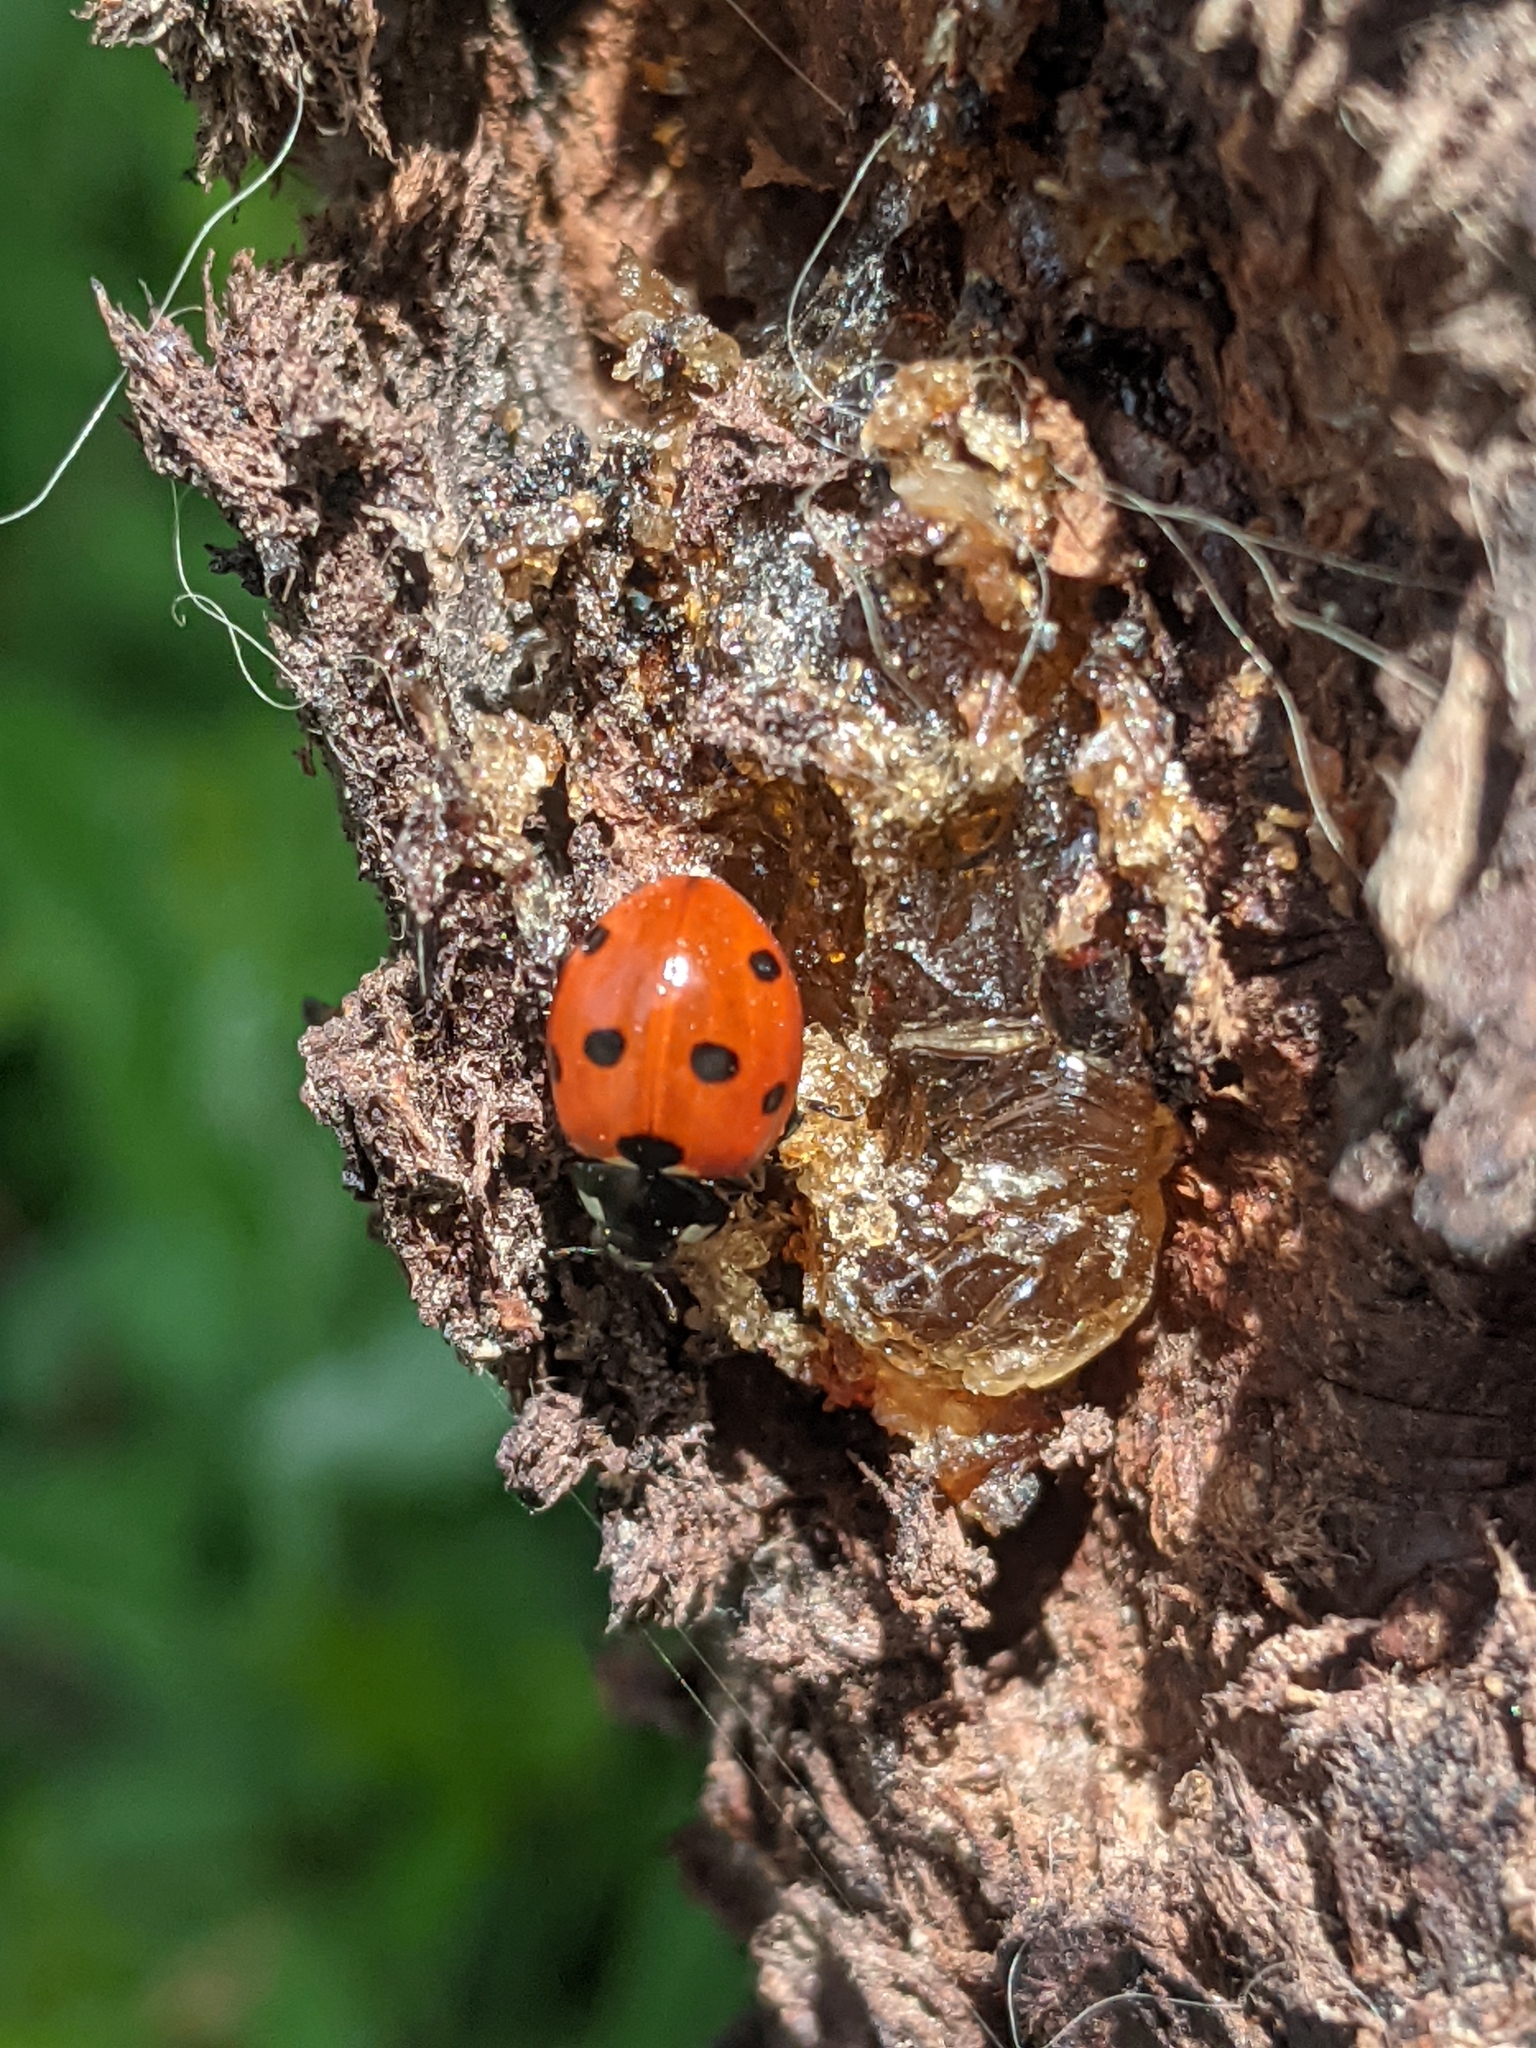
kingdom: Animalia
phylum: Arthropoda
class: Insecta
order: Coleoptera
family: Coccinellidae
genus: Coccinella
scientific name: Coccinella septempunctata
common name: Sevenspotted lady beetle
